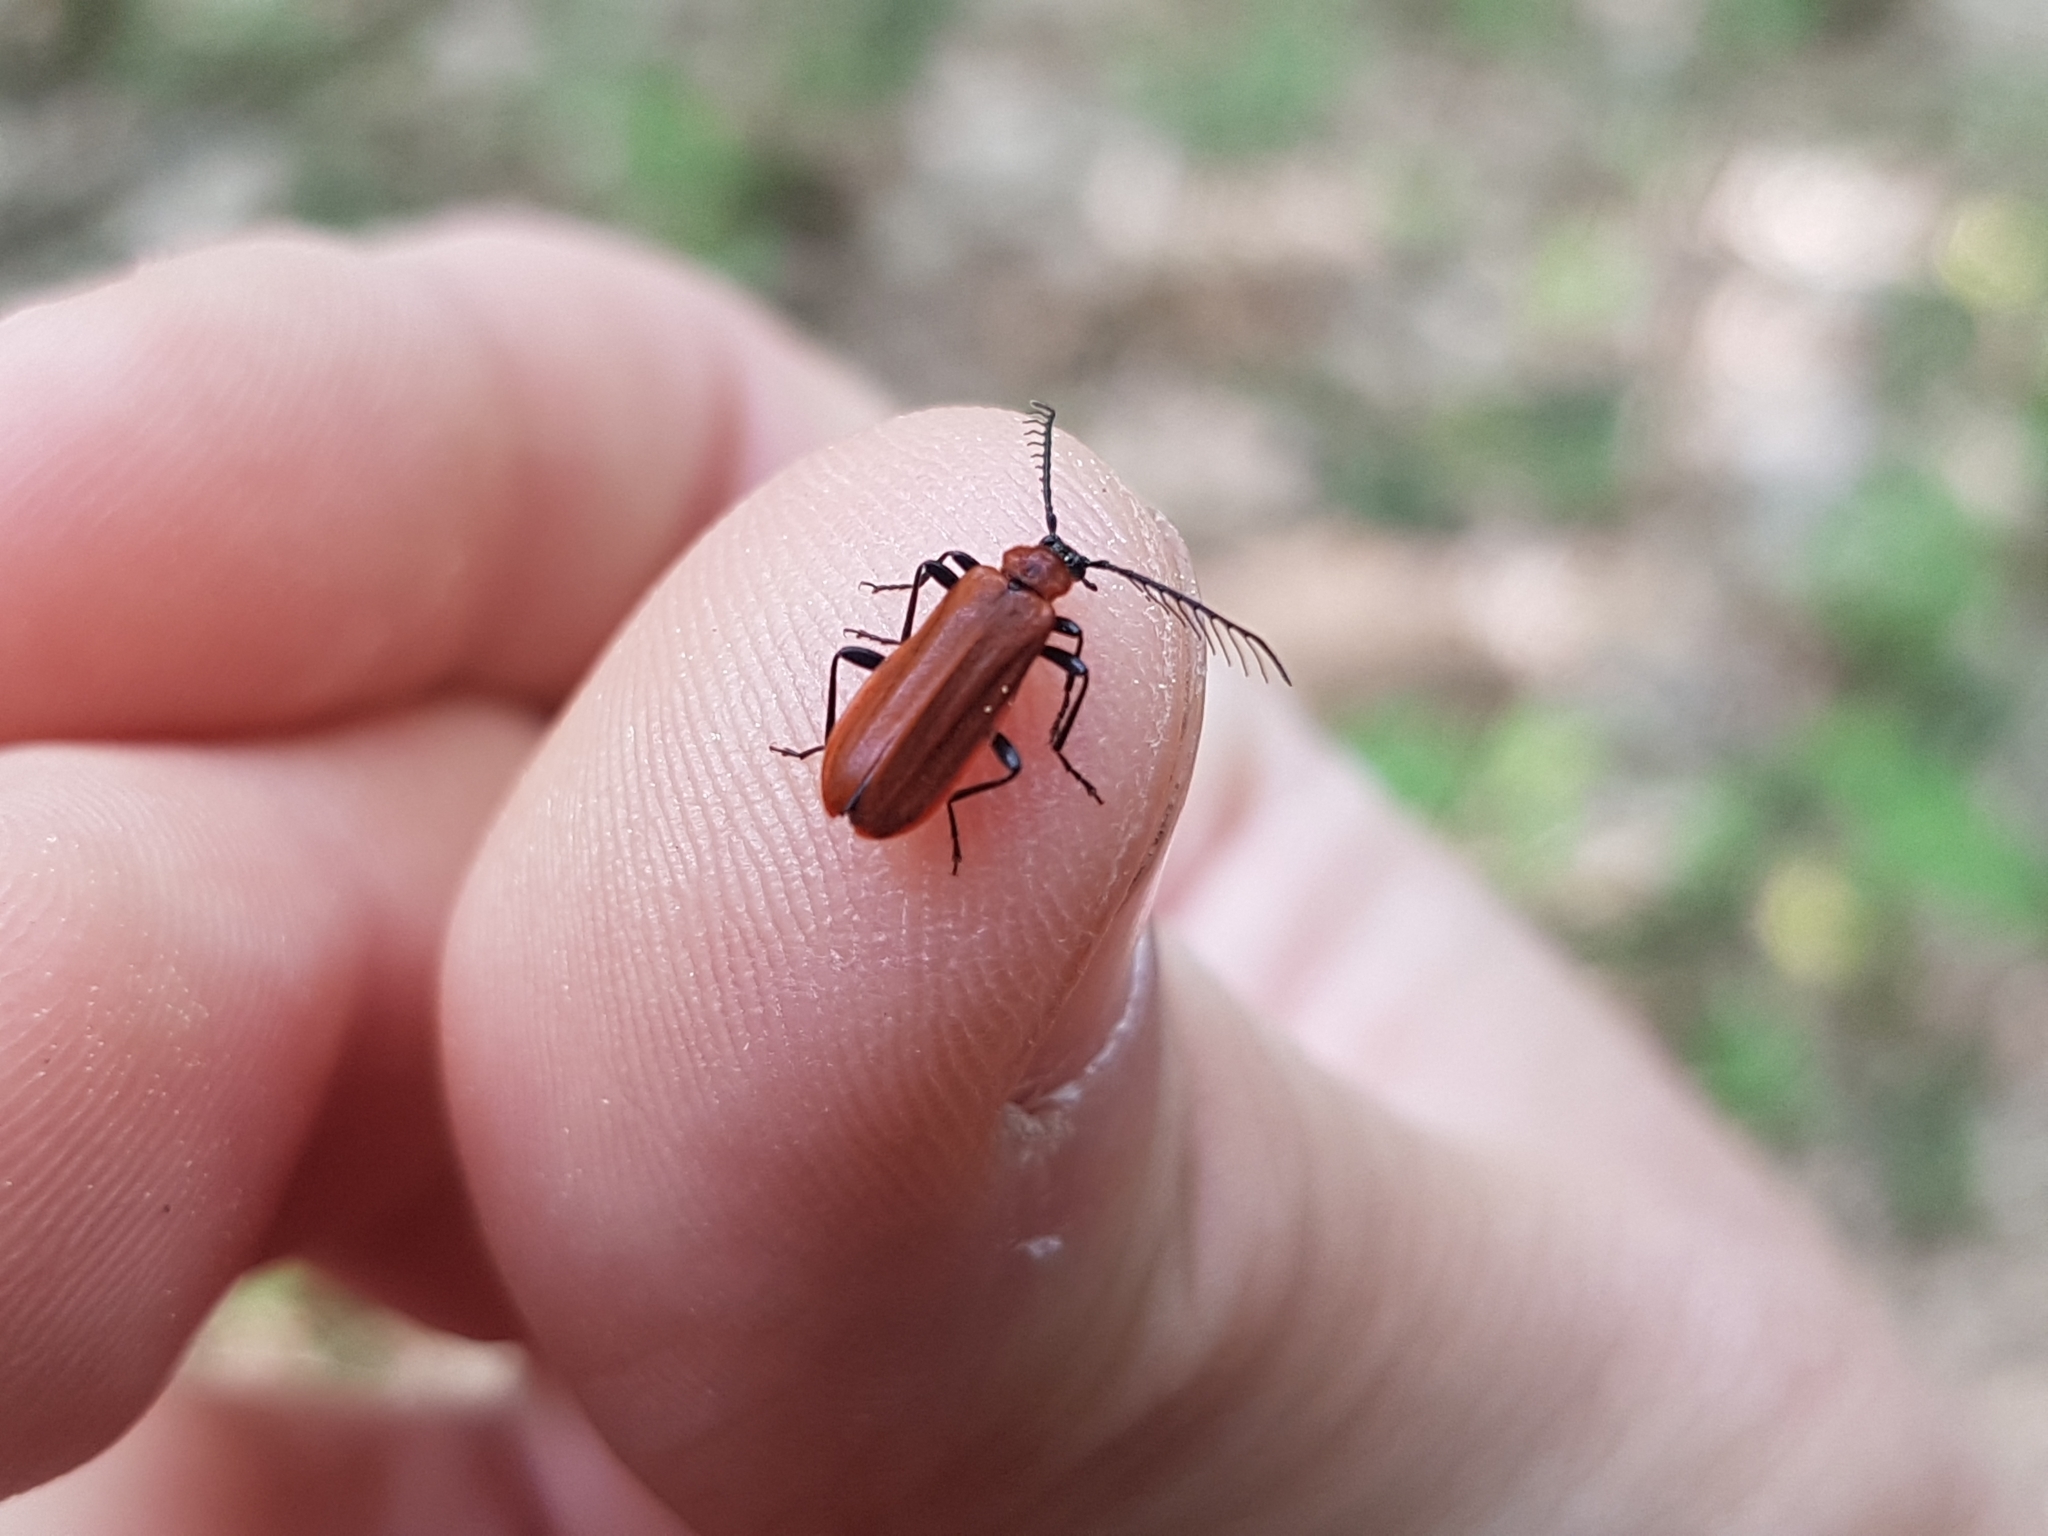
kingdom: Animalia
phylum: Arthropoda
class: Insecta
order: Coleoptera
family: Pyrochroidae
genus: Schizotus
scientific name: Schizotus pectinicornis
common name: Scarce cardinal beetle
